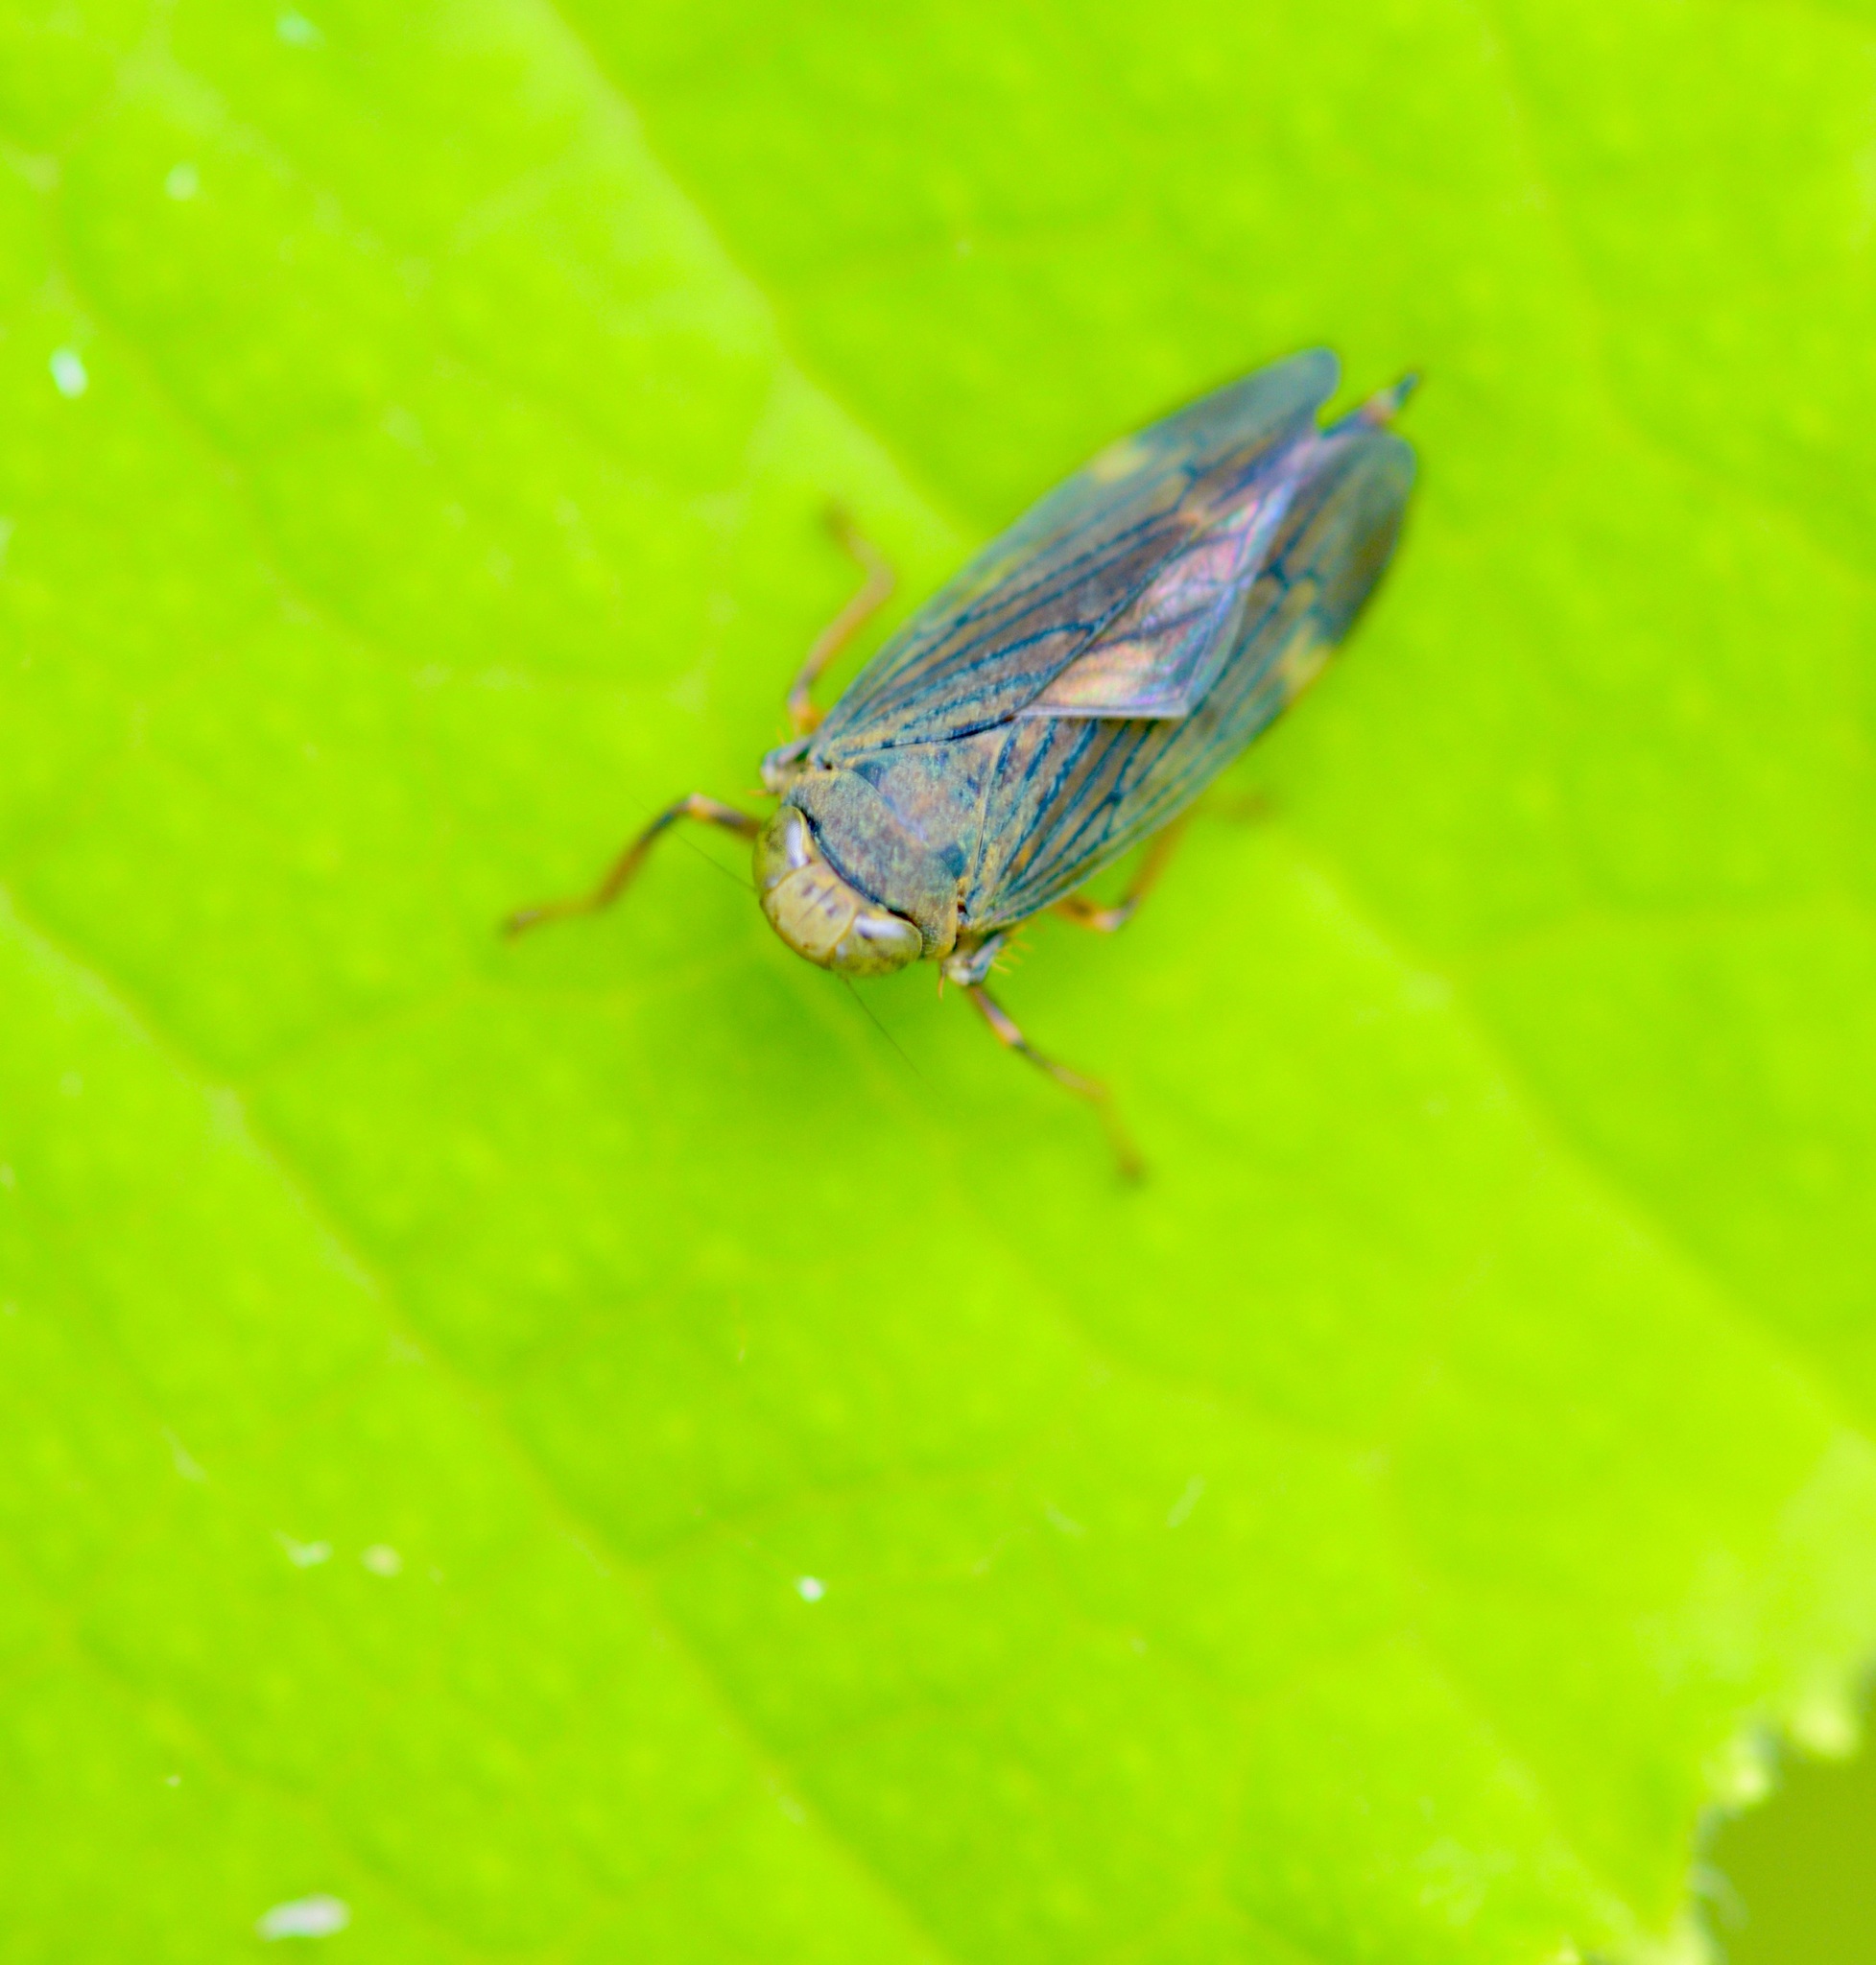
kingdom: Animalia
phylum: Arthropoda
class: Insecta
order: Hemiptera
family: Cicadellidae
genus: Jikradia
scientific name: Jikradia olitoria
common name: Coppery leafhopper
